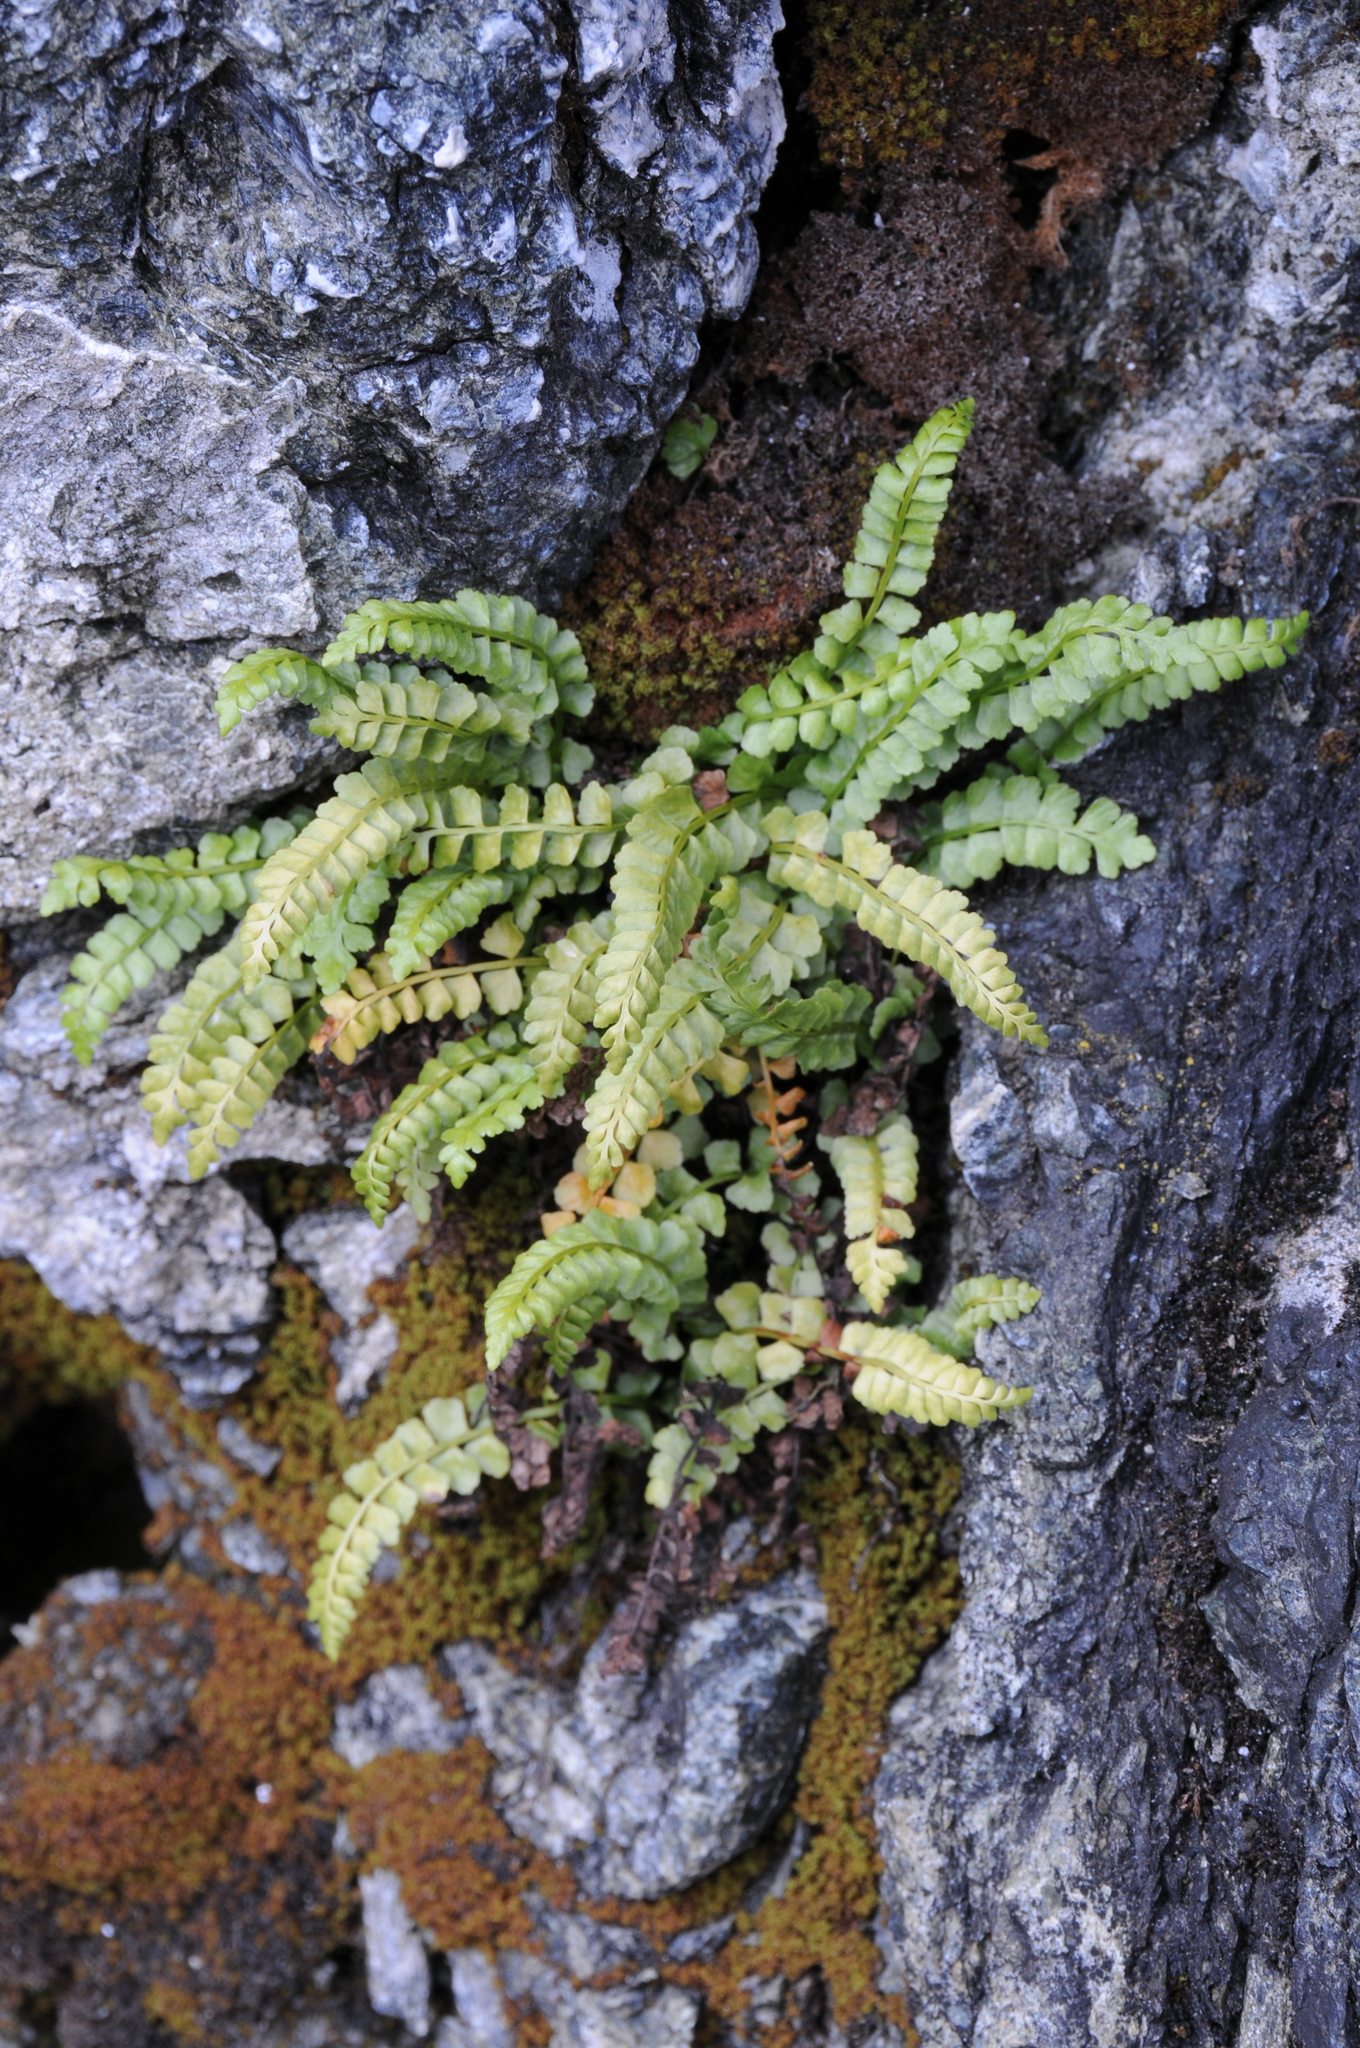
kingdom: Plantae
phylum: Tracheophyta
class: Polypodiopsida
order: Polypodiales
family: Aspleniaceae
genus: Asplenium
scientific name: Asplenium viride
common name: Green spleenwort
